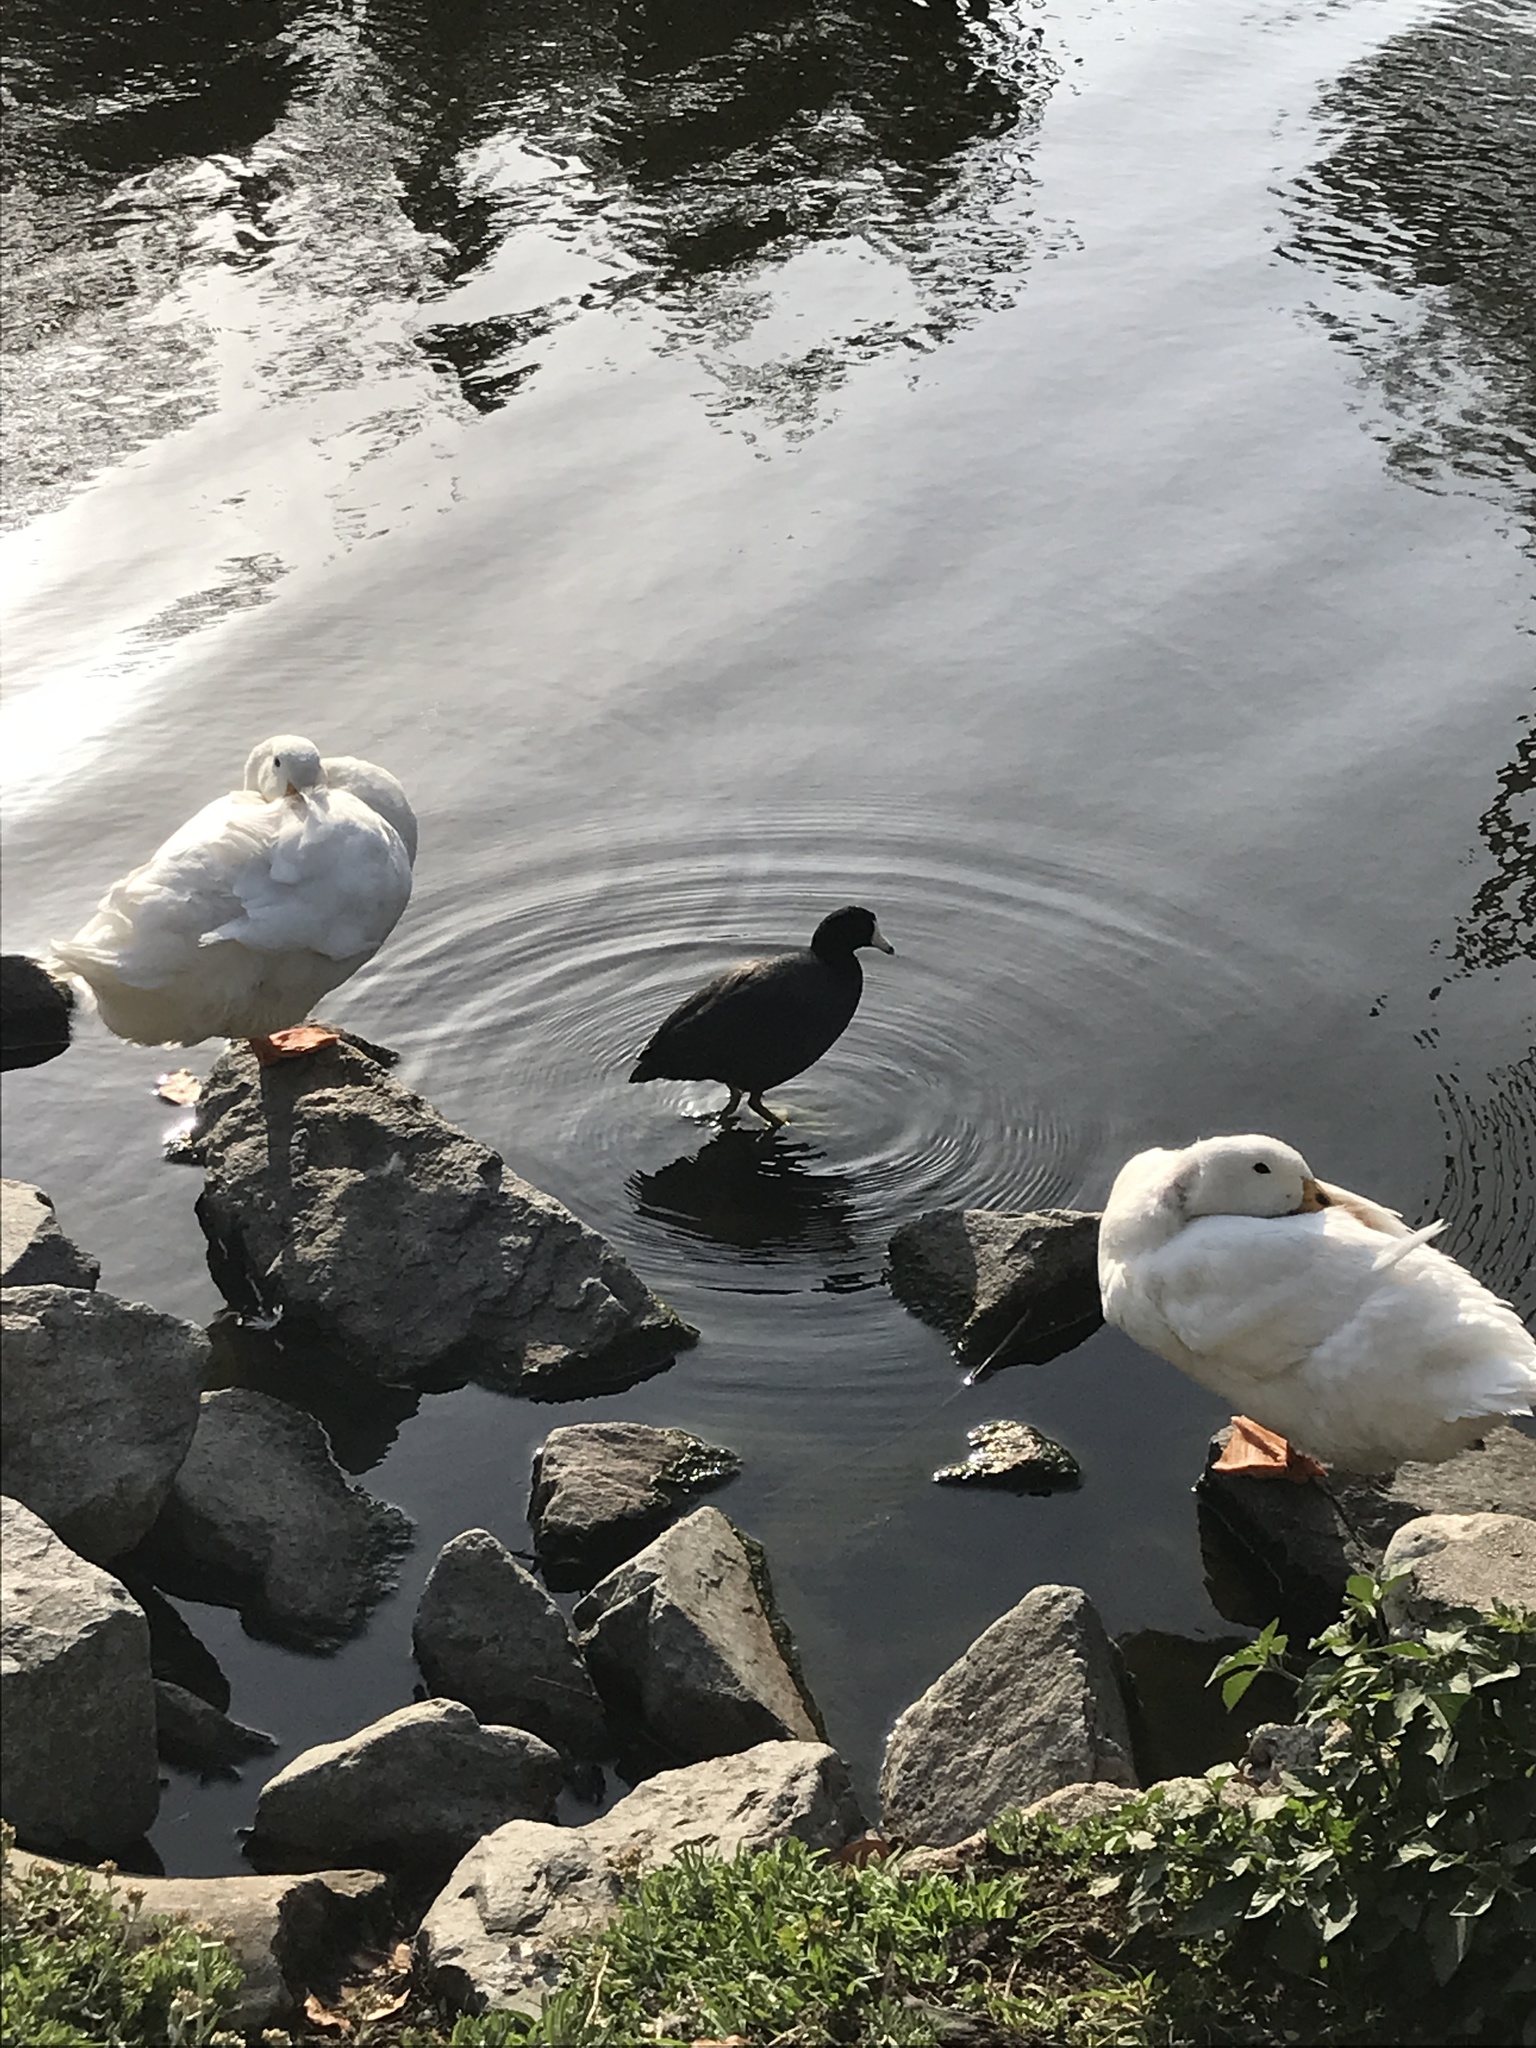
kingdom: Animalia
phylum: Chordata
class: Aves
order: Gruiformes
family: Rallidae
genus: Fulica
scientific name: Fulica americana
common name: American coot
